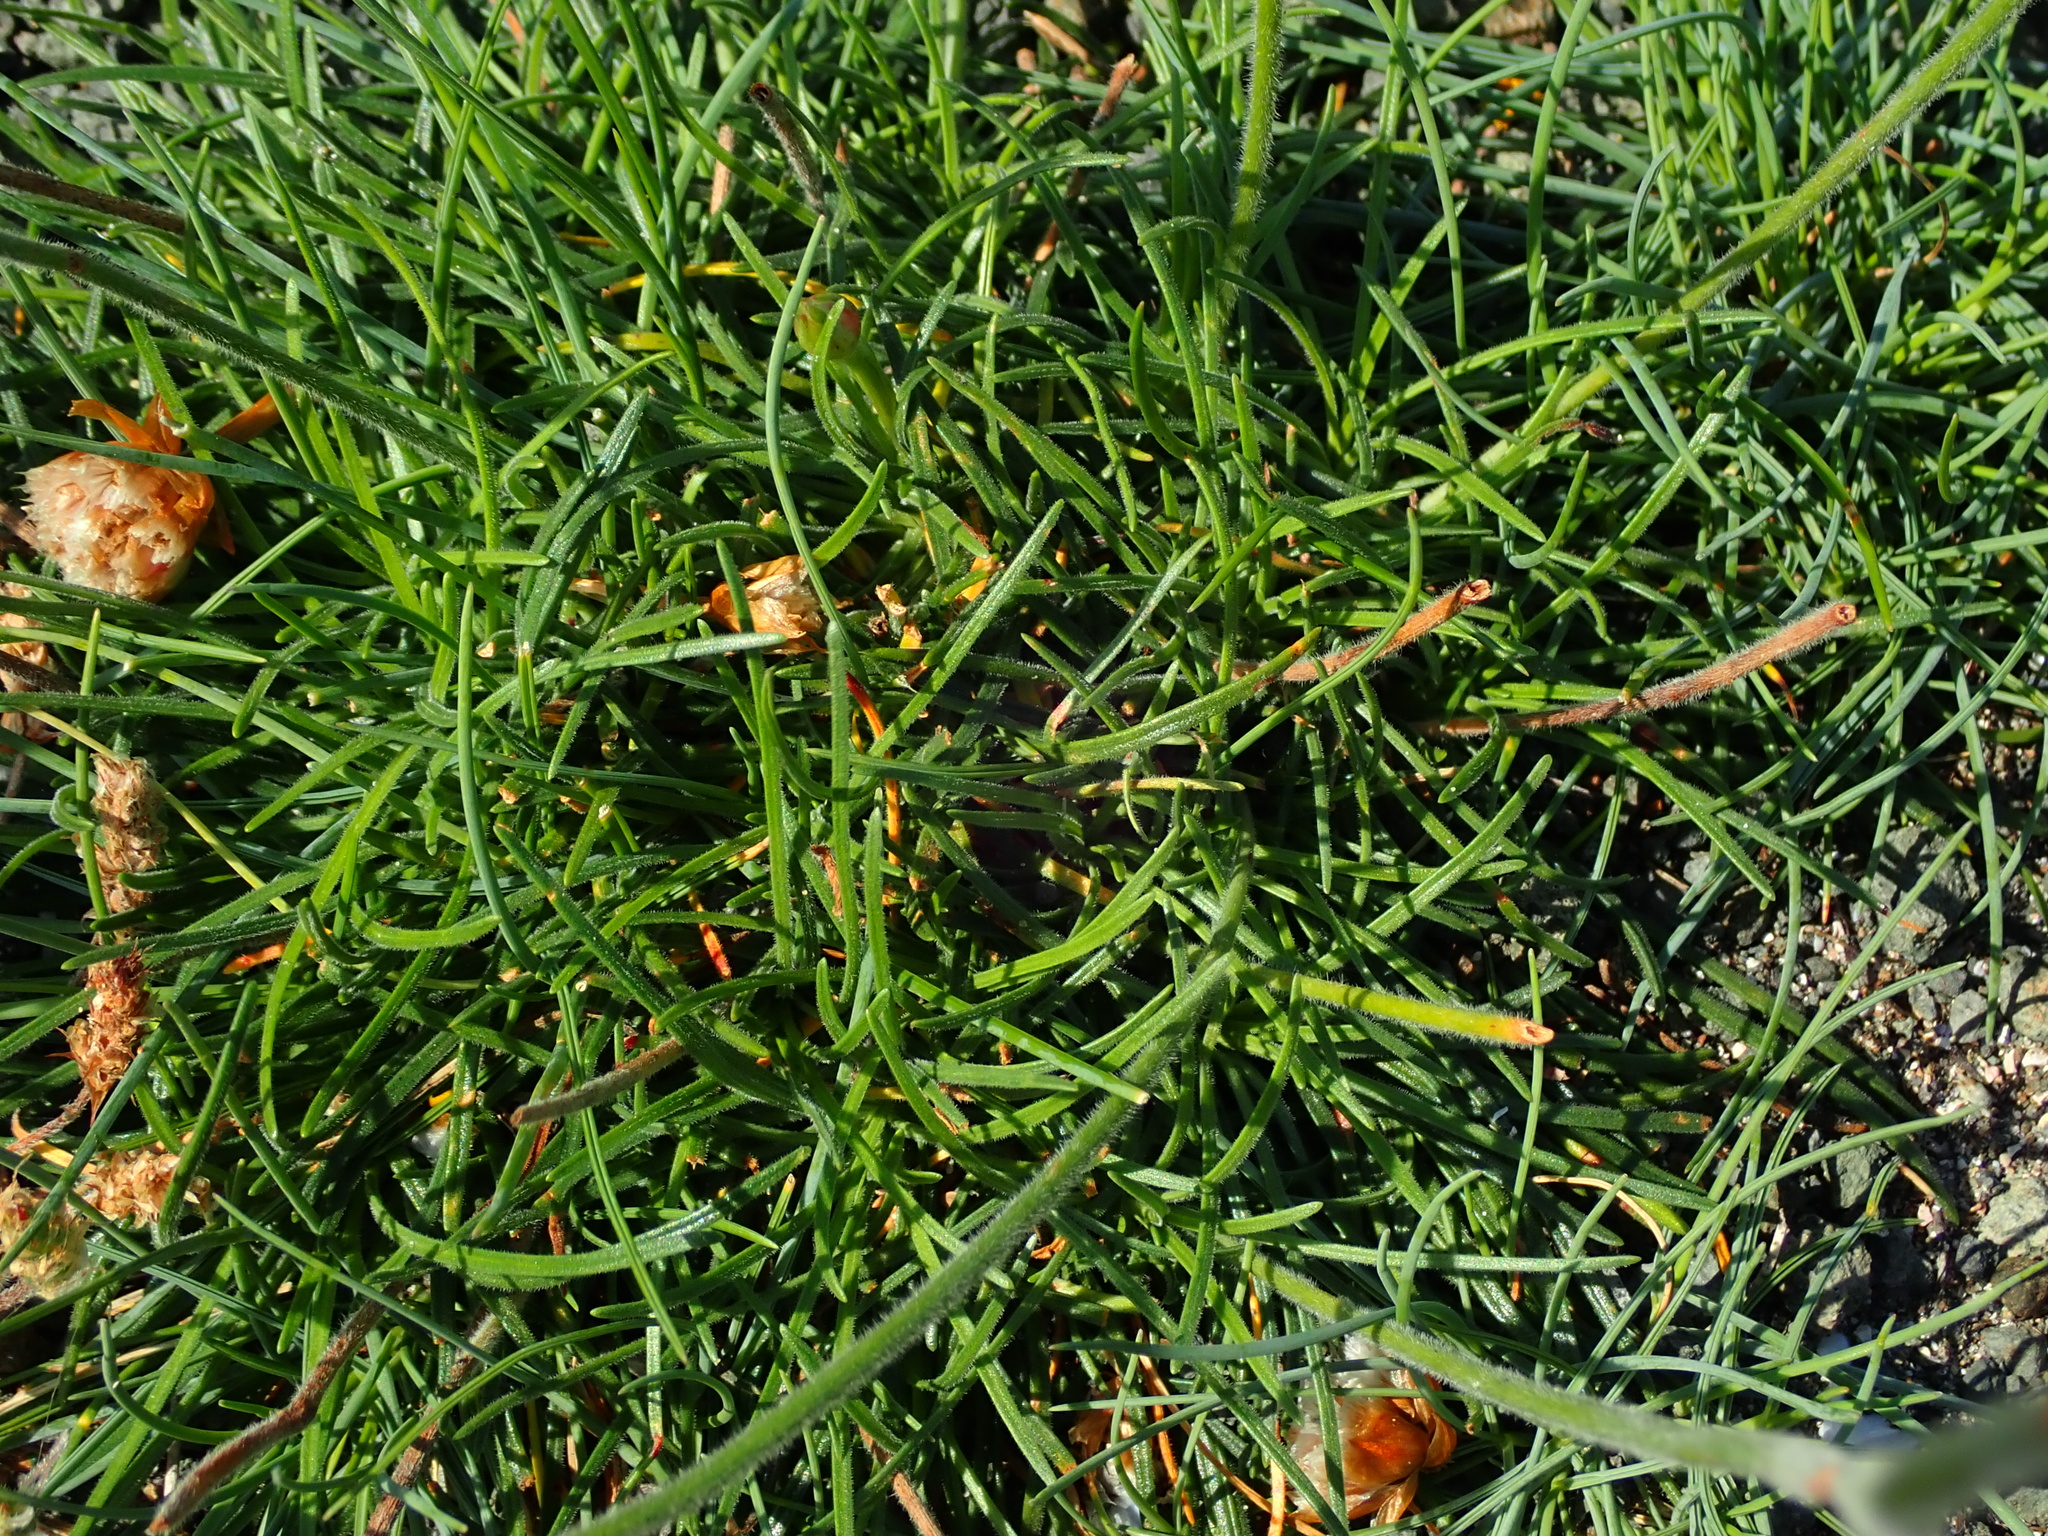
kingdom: Plantae
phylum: Tracheophyta
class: Magnoliopsida
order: Caryophyllales
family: Plumbaginaceae
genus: Armeria
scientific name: Armeria maritima
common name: Thrift
